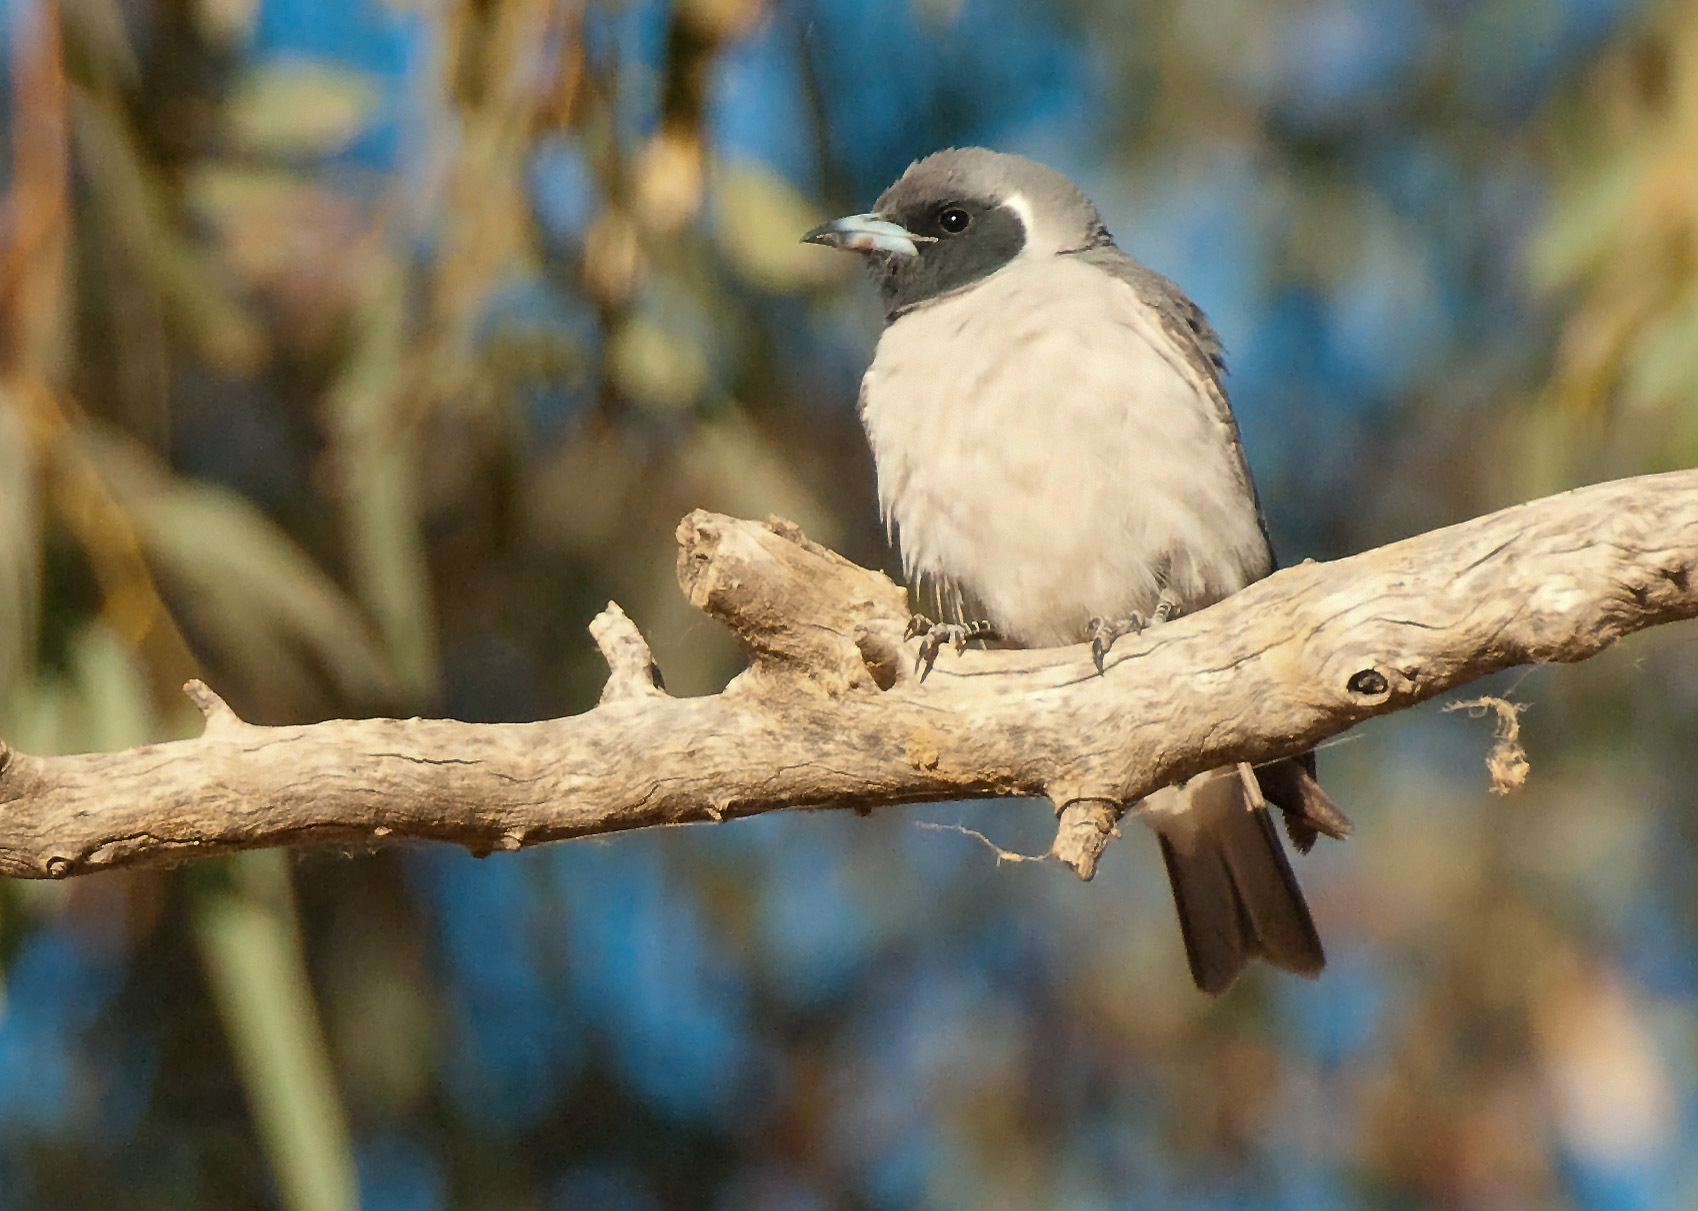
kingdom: Animalia
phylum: Chordata
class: Aves
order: Passeriformes
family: Artamidae
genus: Artamus
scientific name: Artamus personatus
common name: Masked woodswallow
